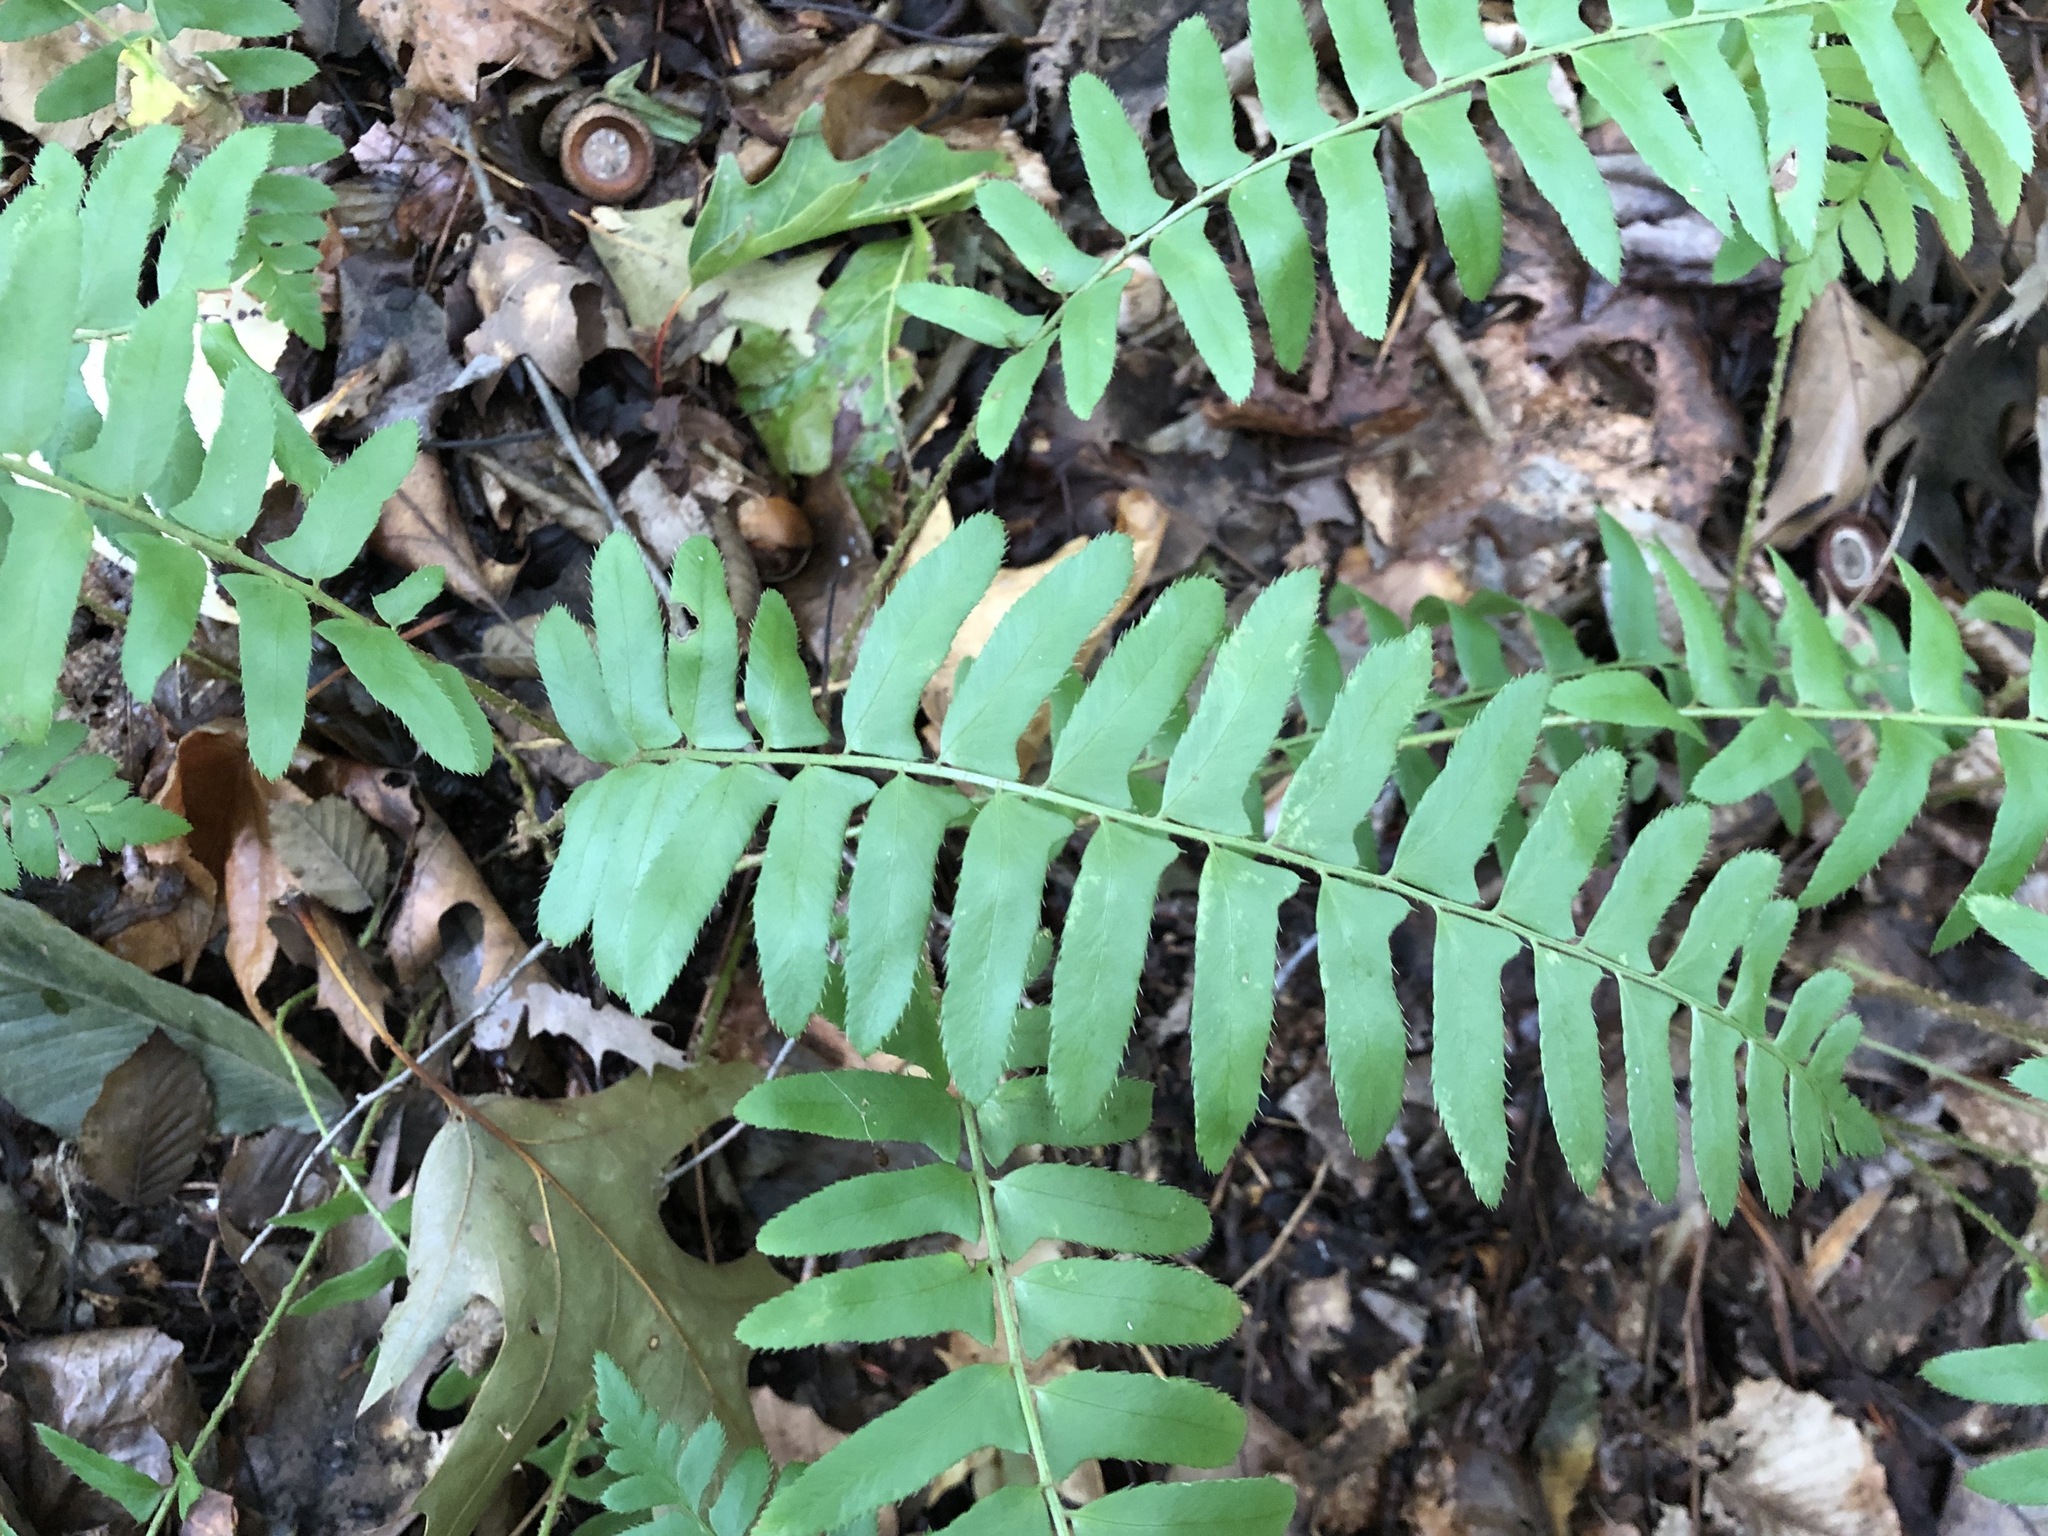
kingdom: Plantae
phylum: Tracheophyta
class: Polypodiopsida
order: Polypodiales
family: Dryopteridaceae
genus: Polystichum
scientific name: Polystichum acrostichoides
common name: Christmas fern
